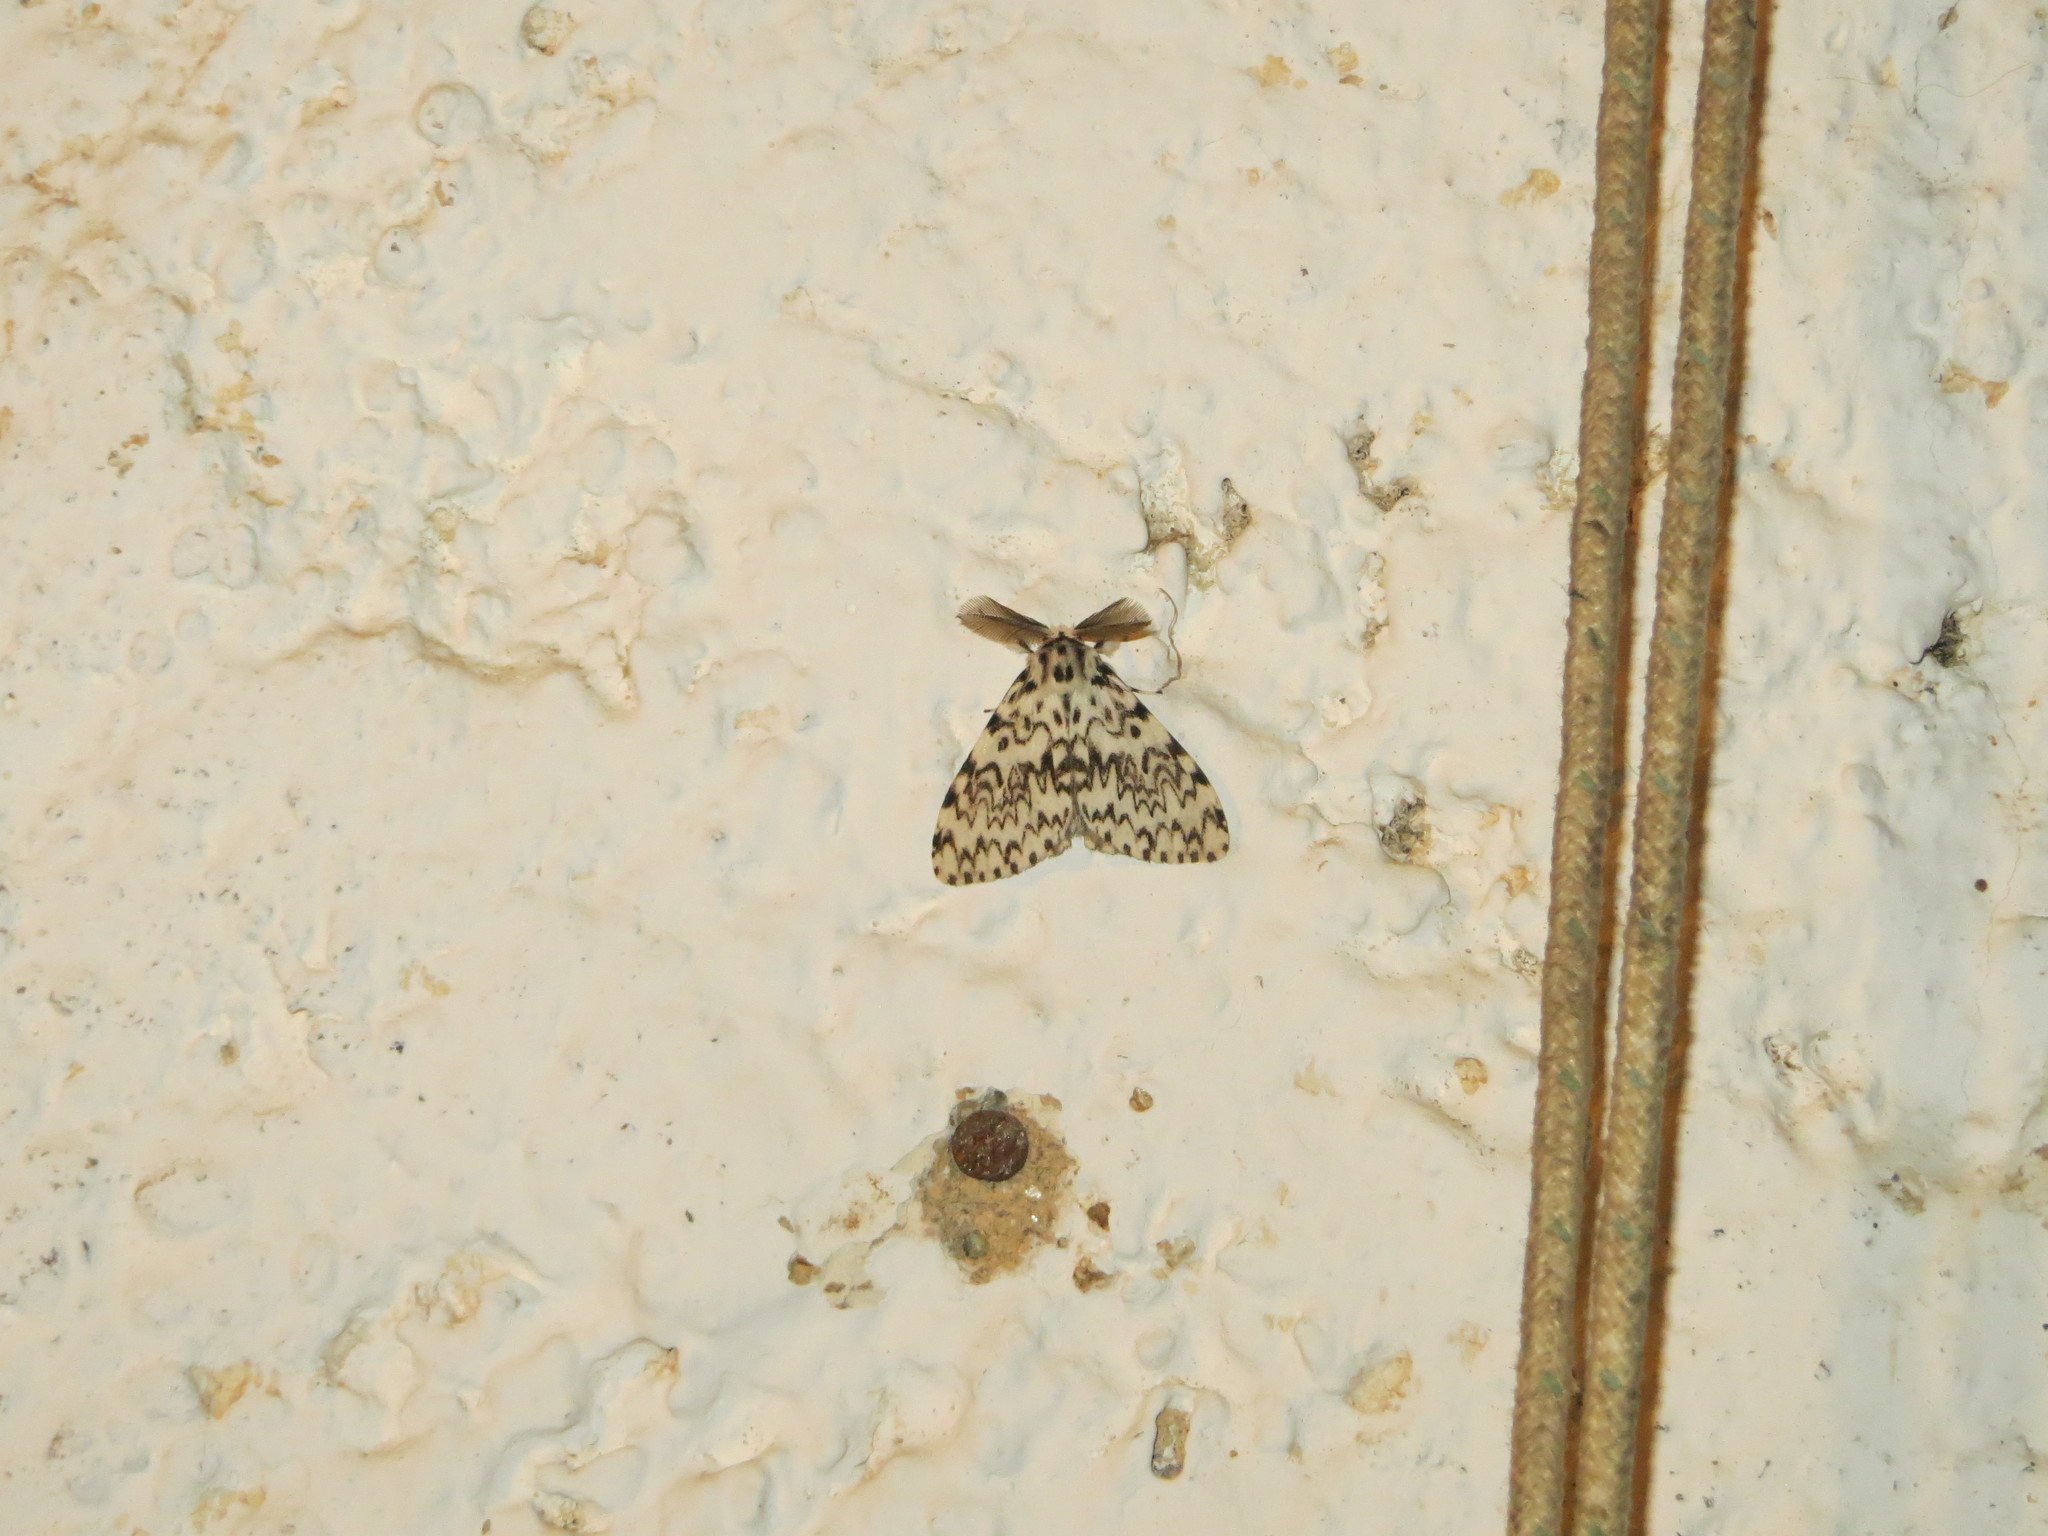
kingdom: Animalia
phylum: Arthropoda
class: Insecta
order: Lepidoptera
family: Erebidae
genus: Lymantria
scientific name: Lymantria monacha
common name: Black arches
